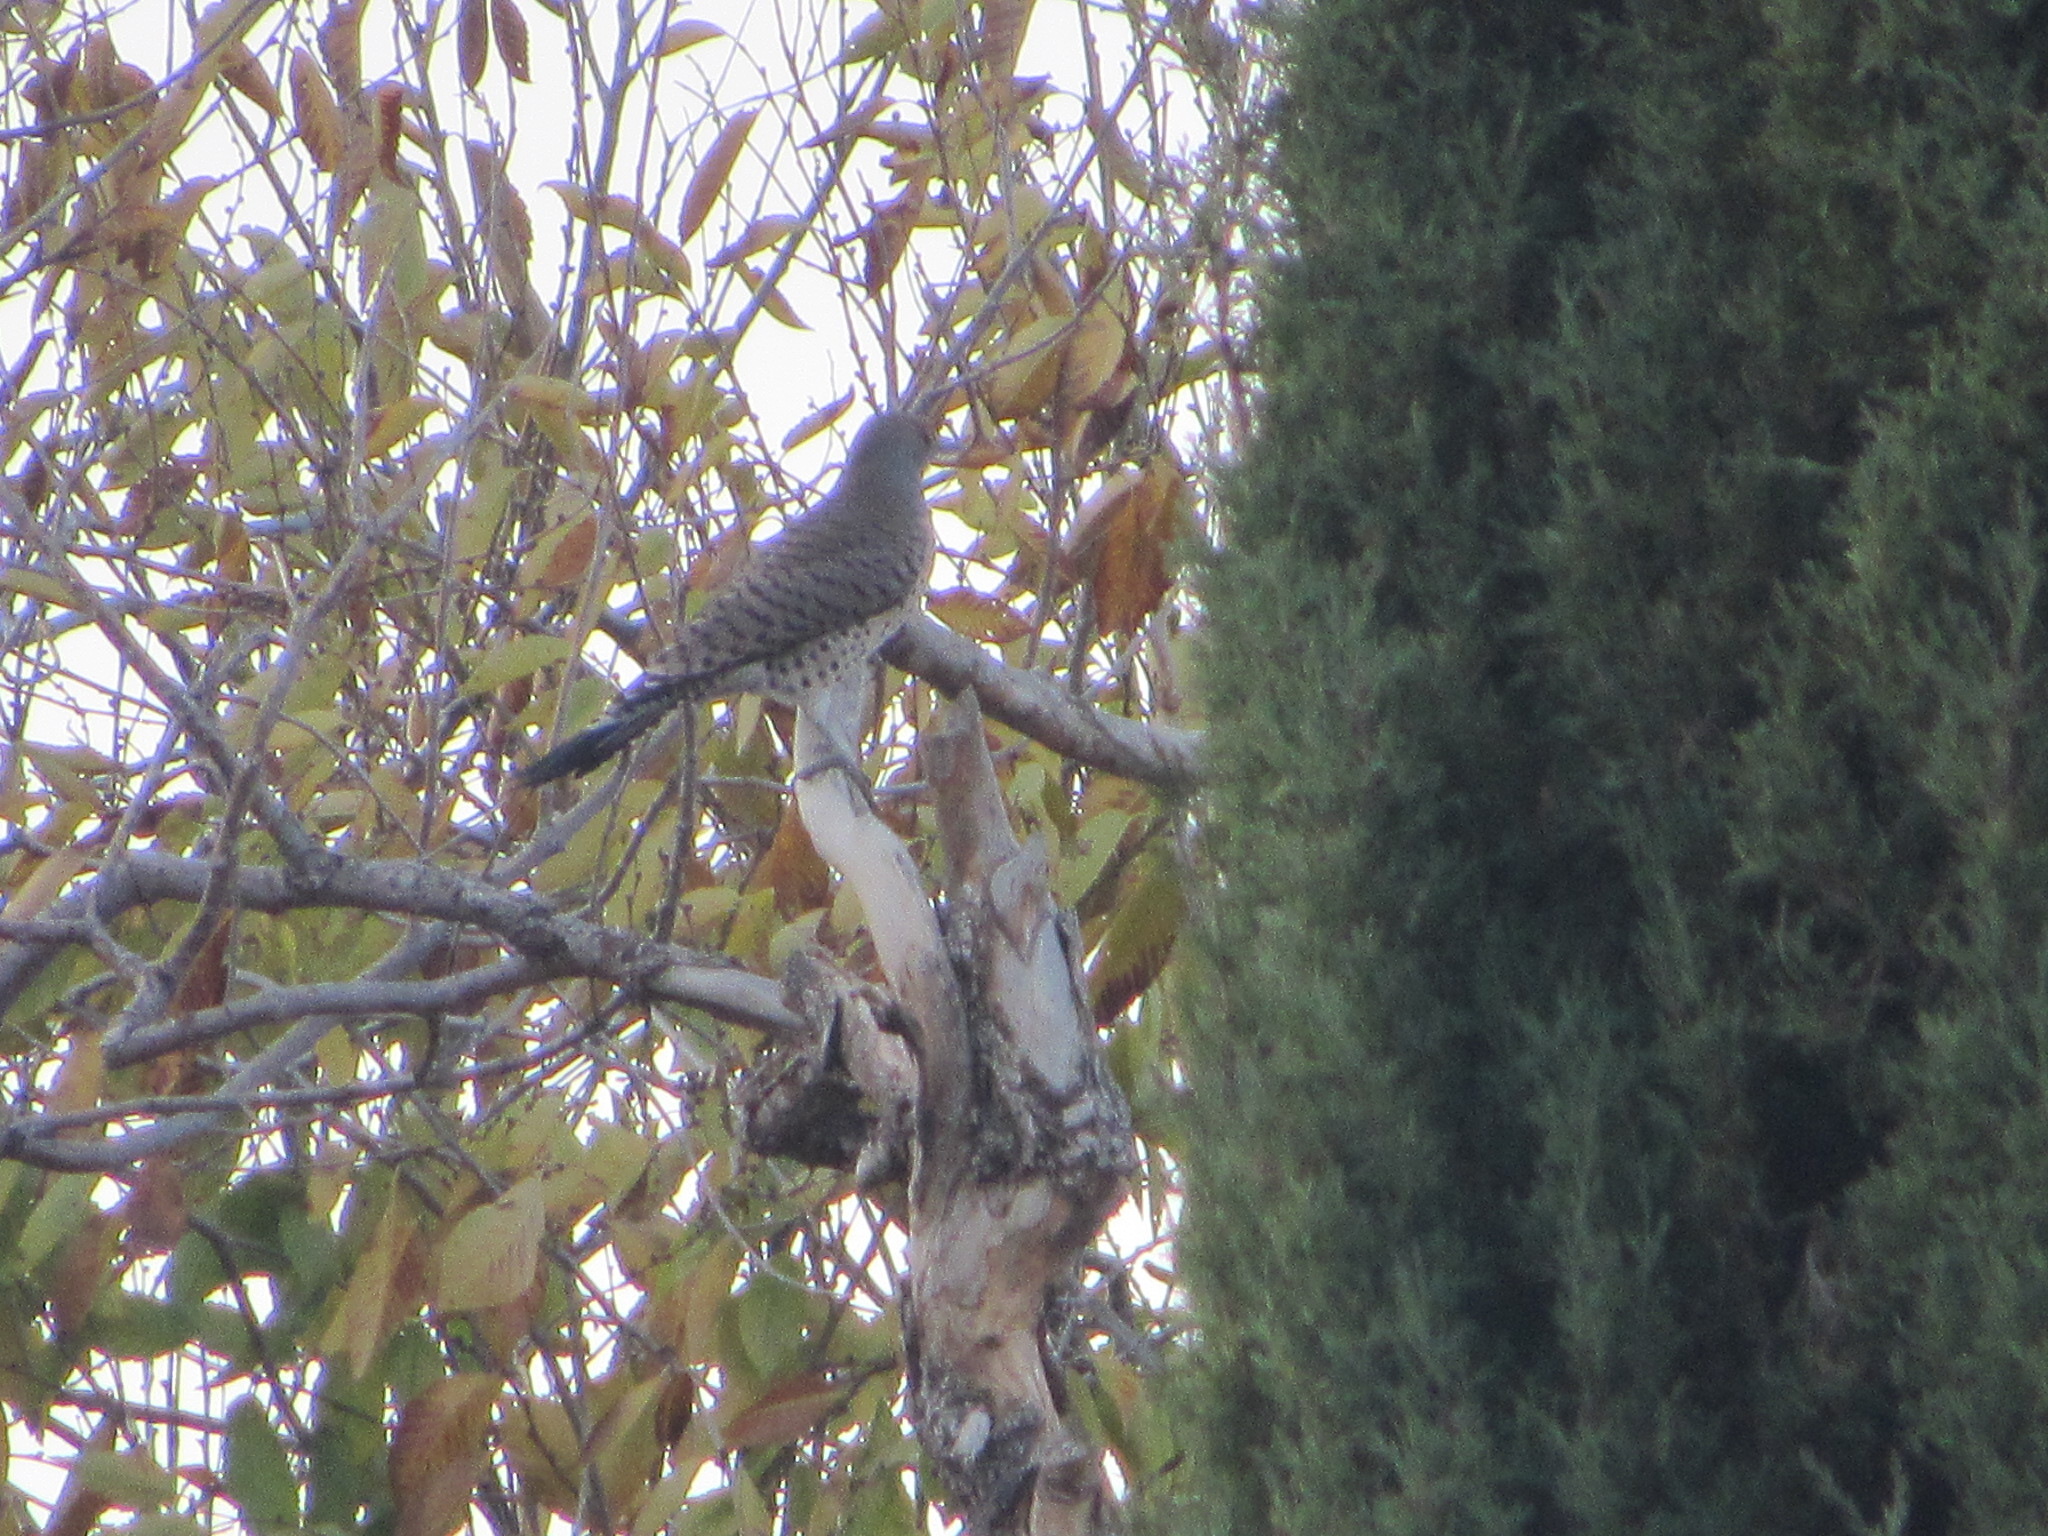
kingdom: Animalia
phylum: Chordata
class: Aves
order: Piciformes
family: Picidae
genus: Colaptes
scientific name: Colaptes auratus
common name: Northern flicker
